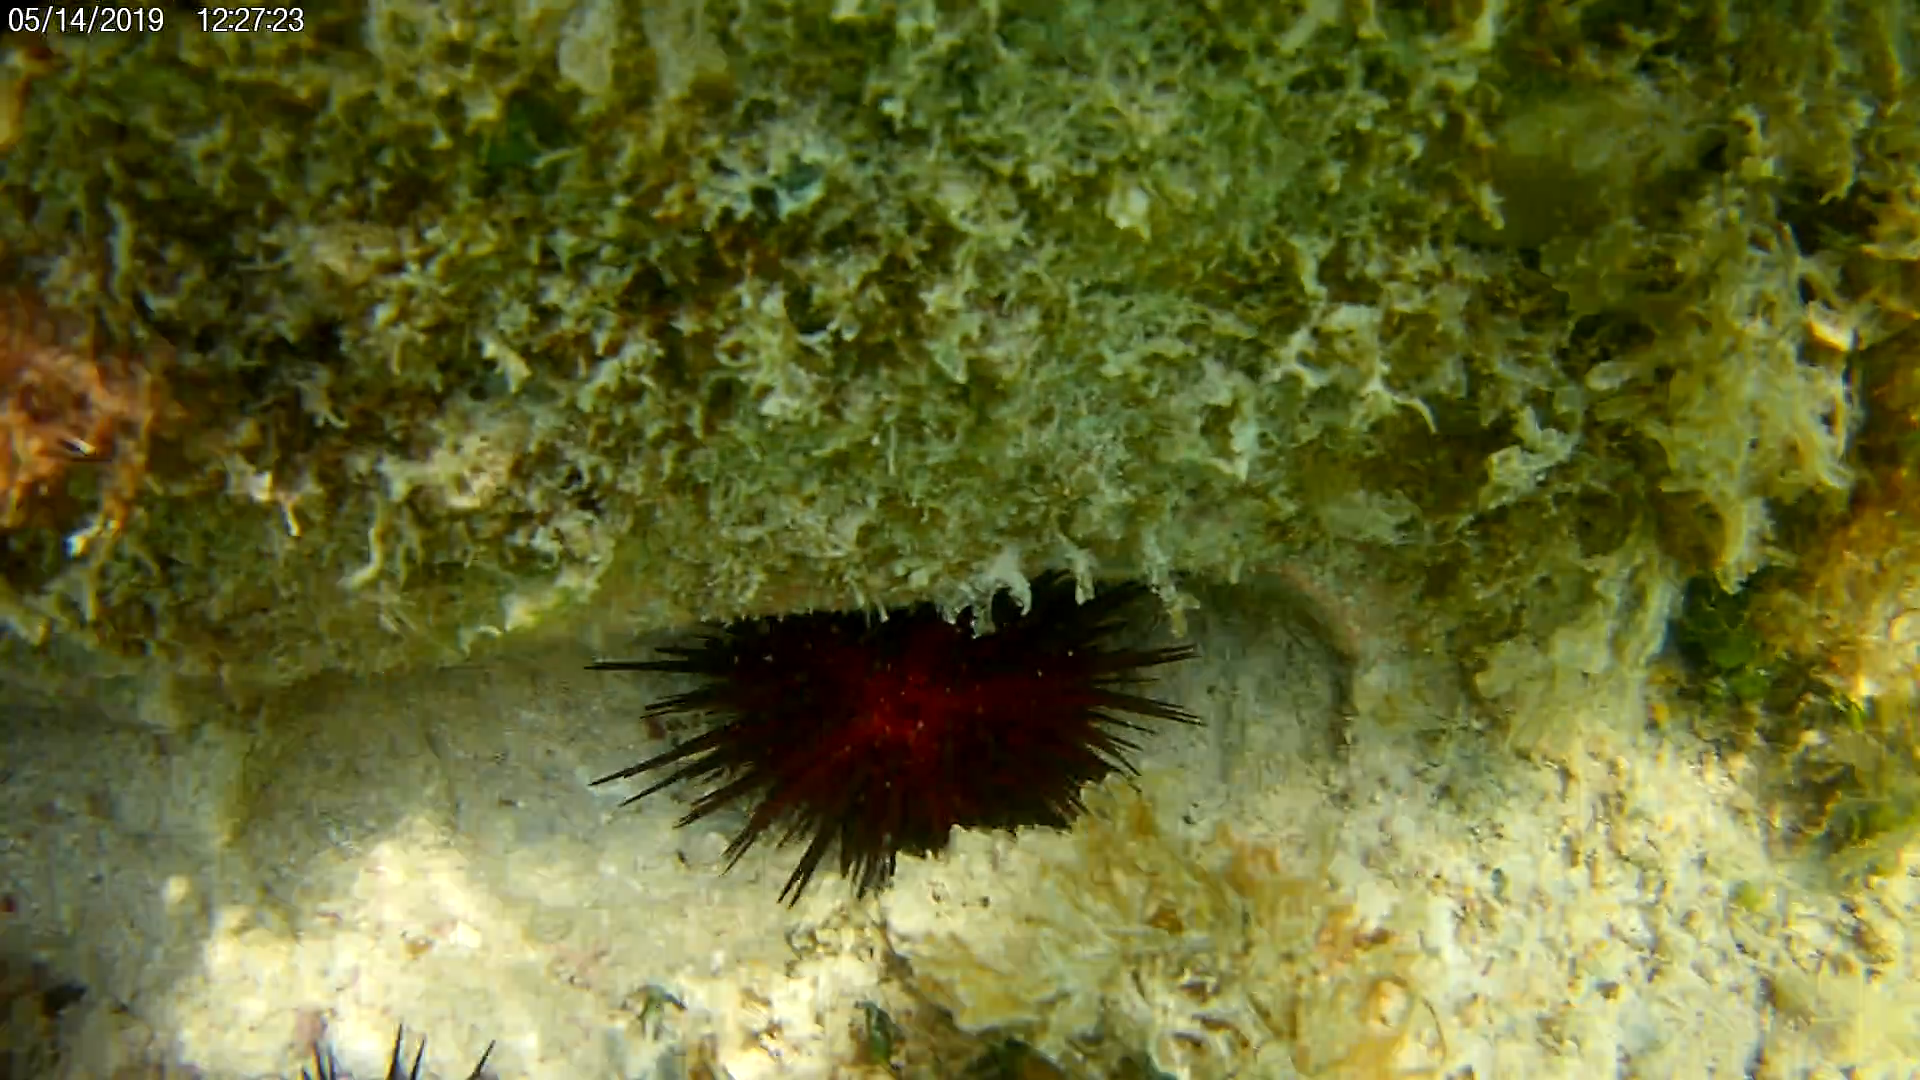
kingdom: Animalia
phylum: Echinodermata
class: Echinoidea
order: Camarodonta
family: Echinometridae
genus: Echinometra
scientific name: Echinometra lucunter
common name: Rock urchin
